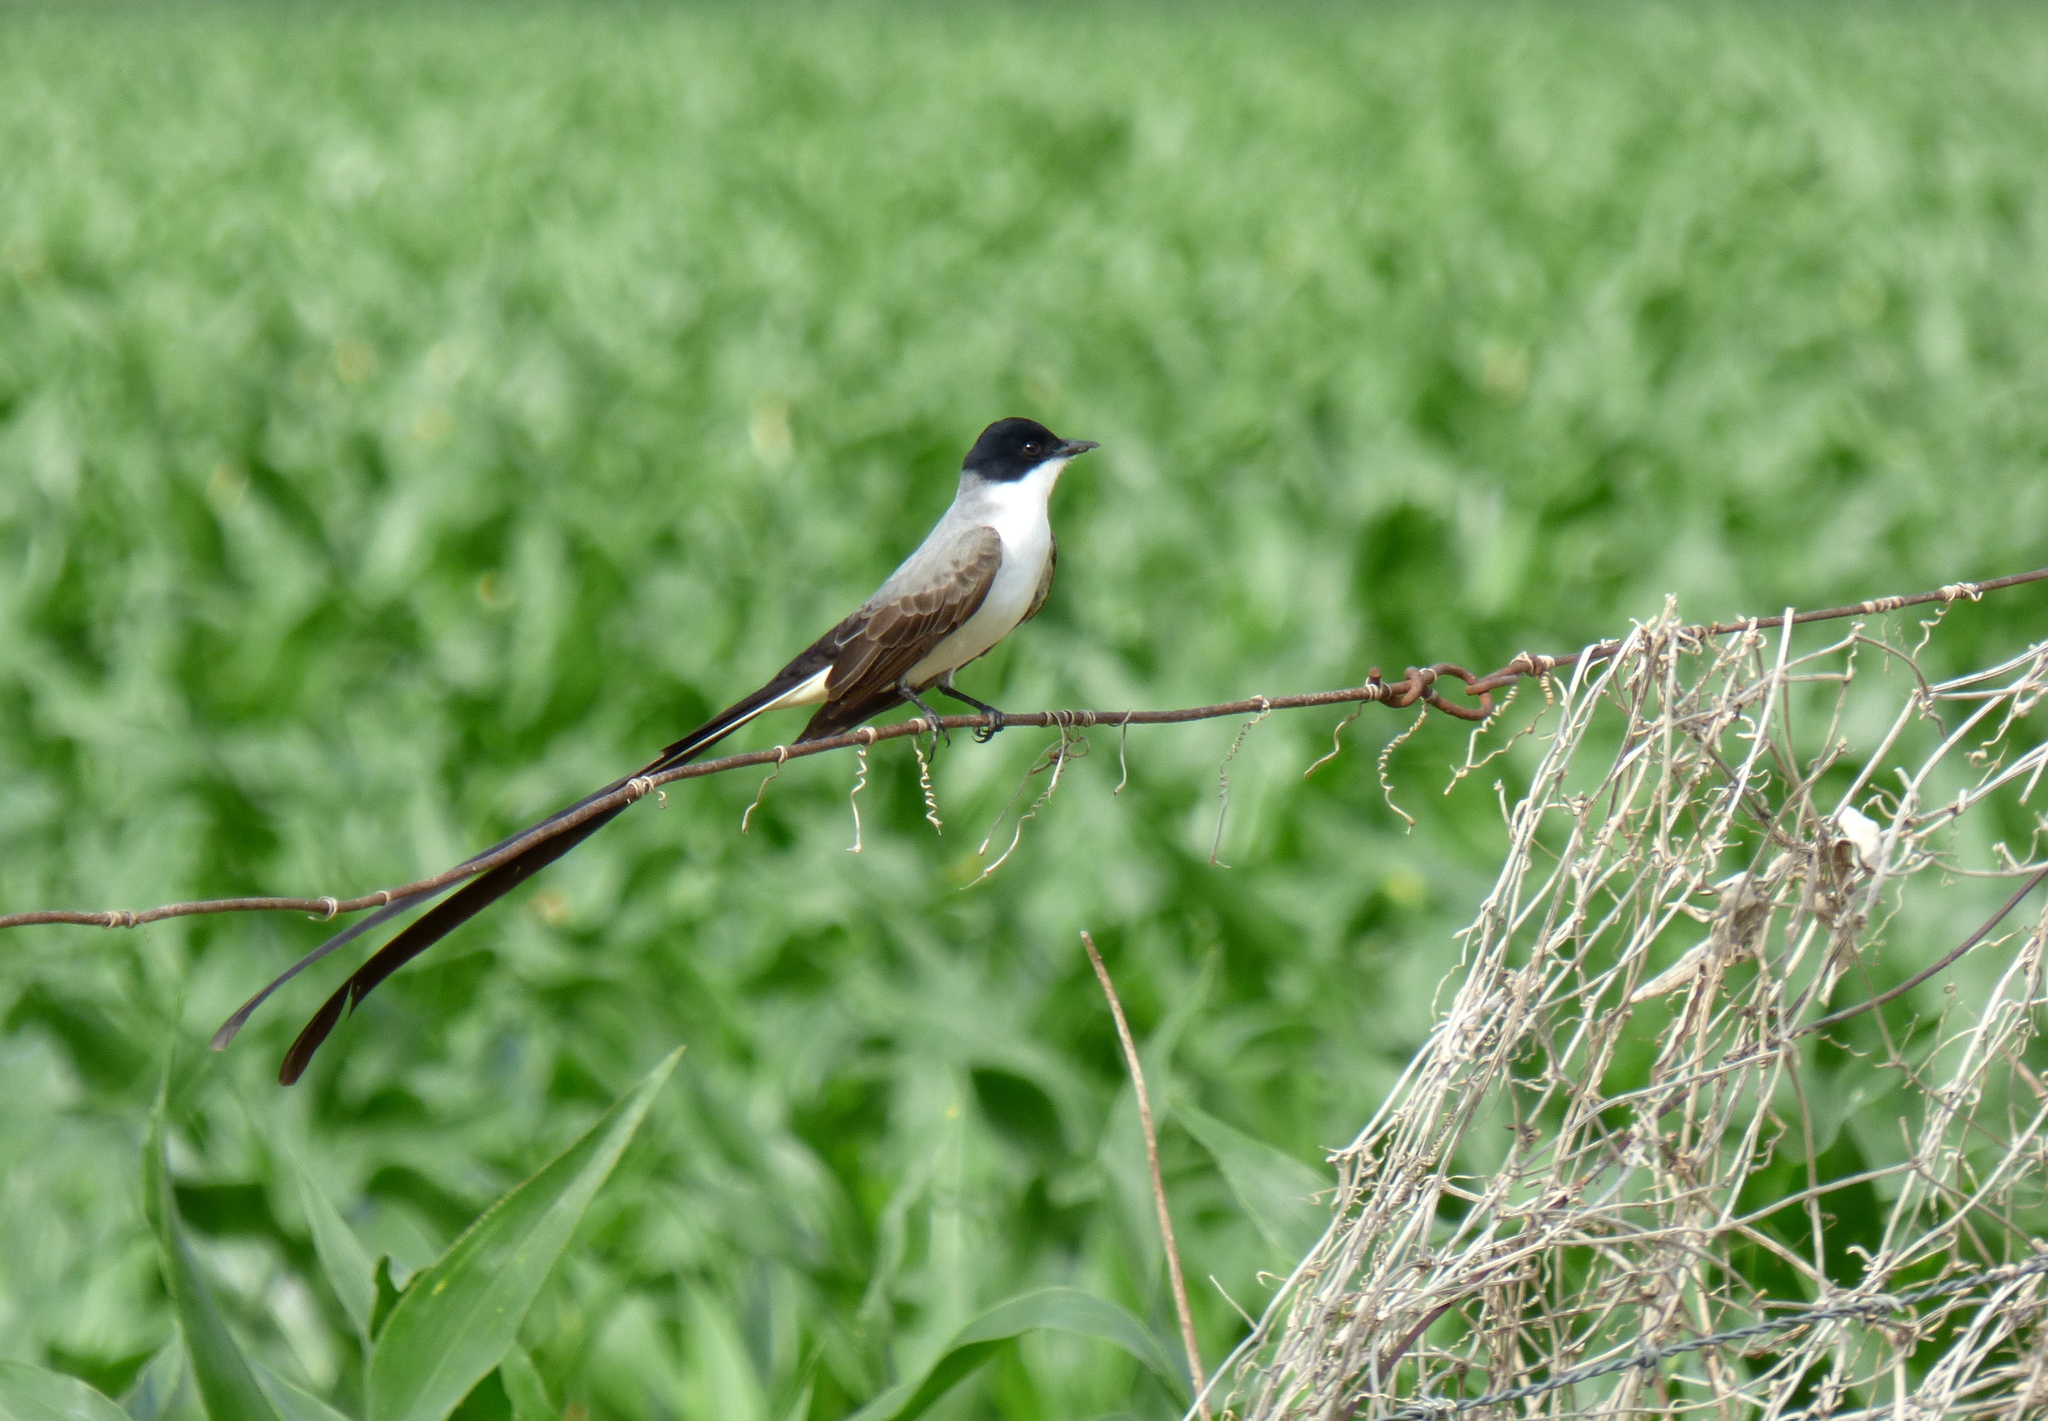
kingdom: Animalia
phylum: Chordata
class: Aves
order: Passeriformes
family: Tyrannidae
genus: Tyrannus
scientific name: Tyrannus savana
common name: Fork-tailed flycatcher
